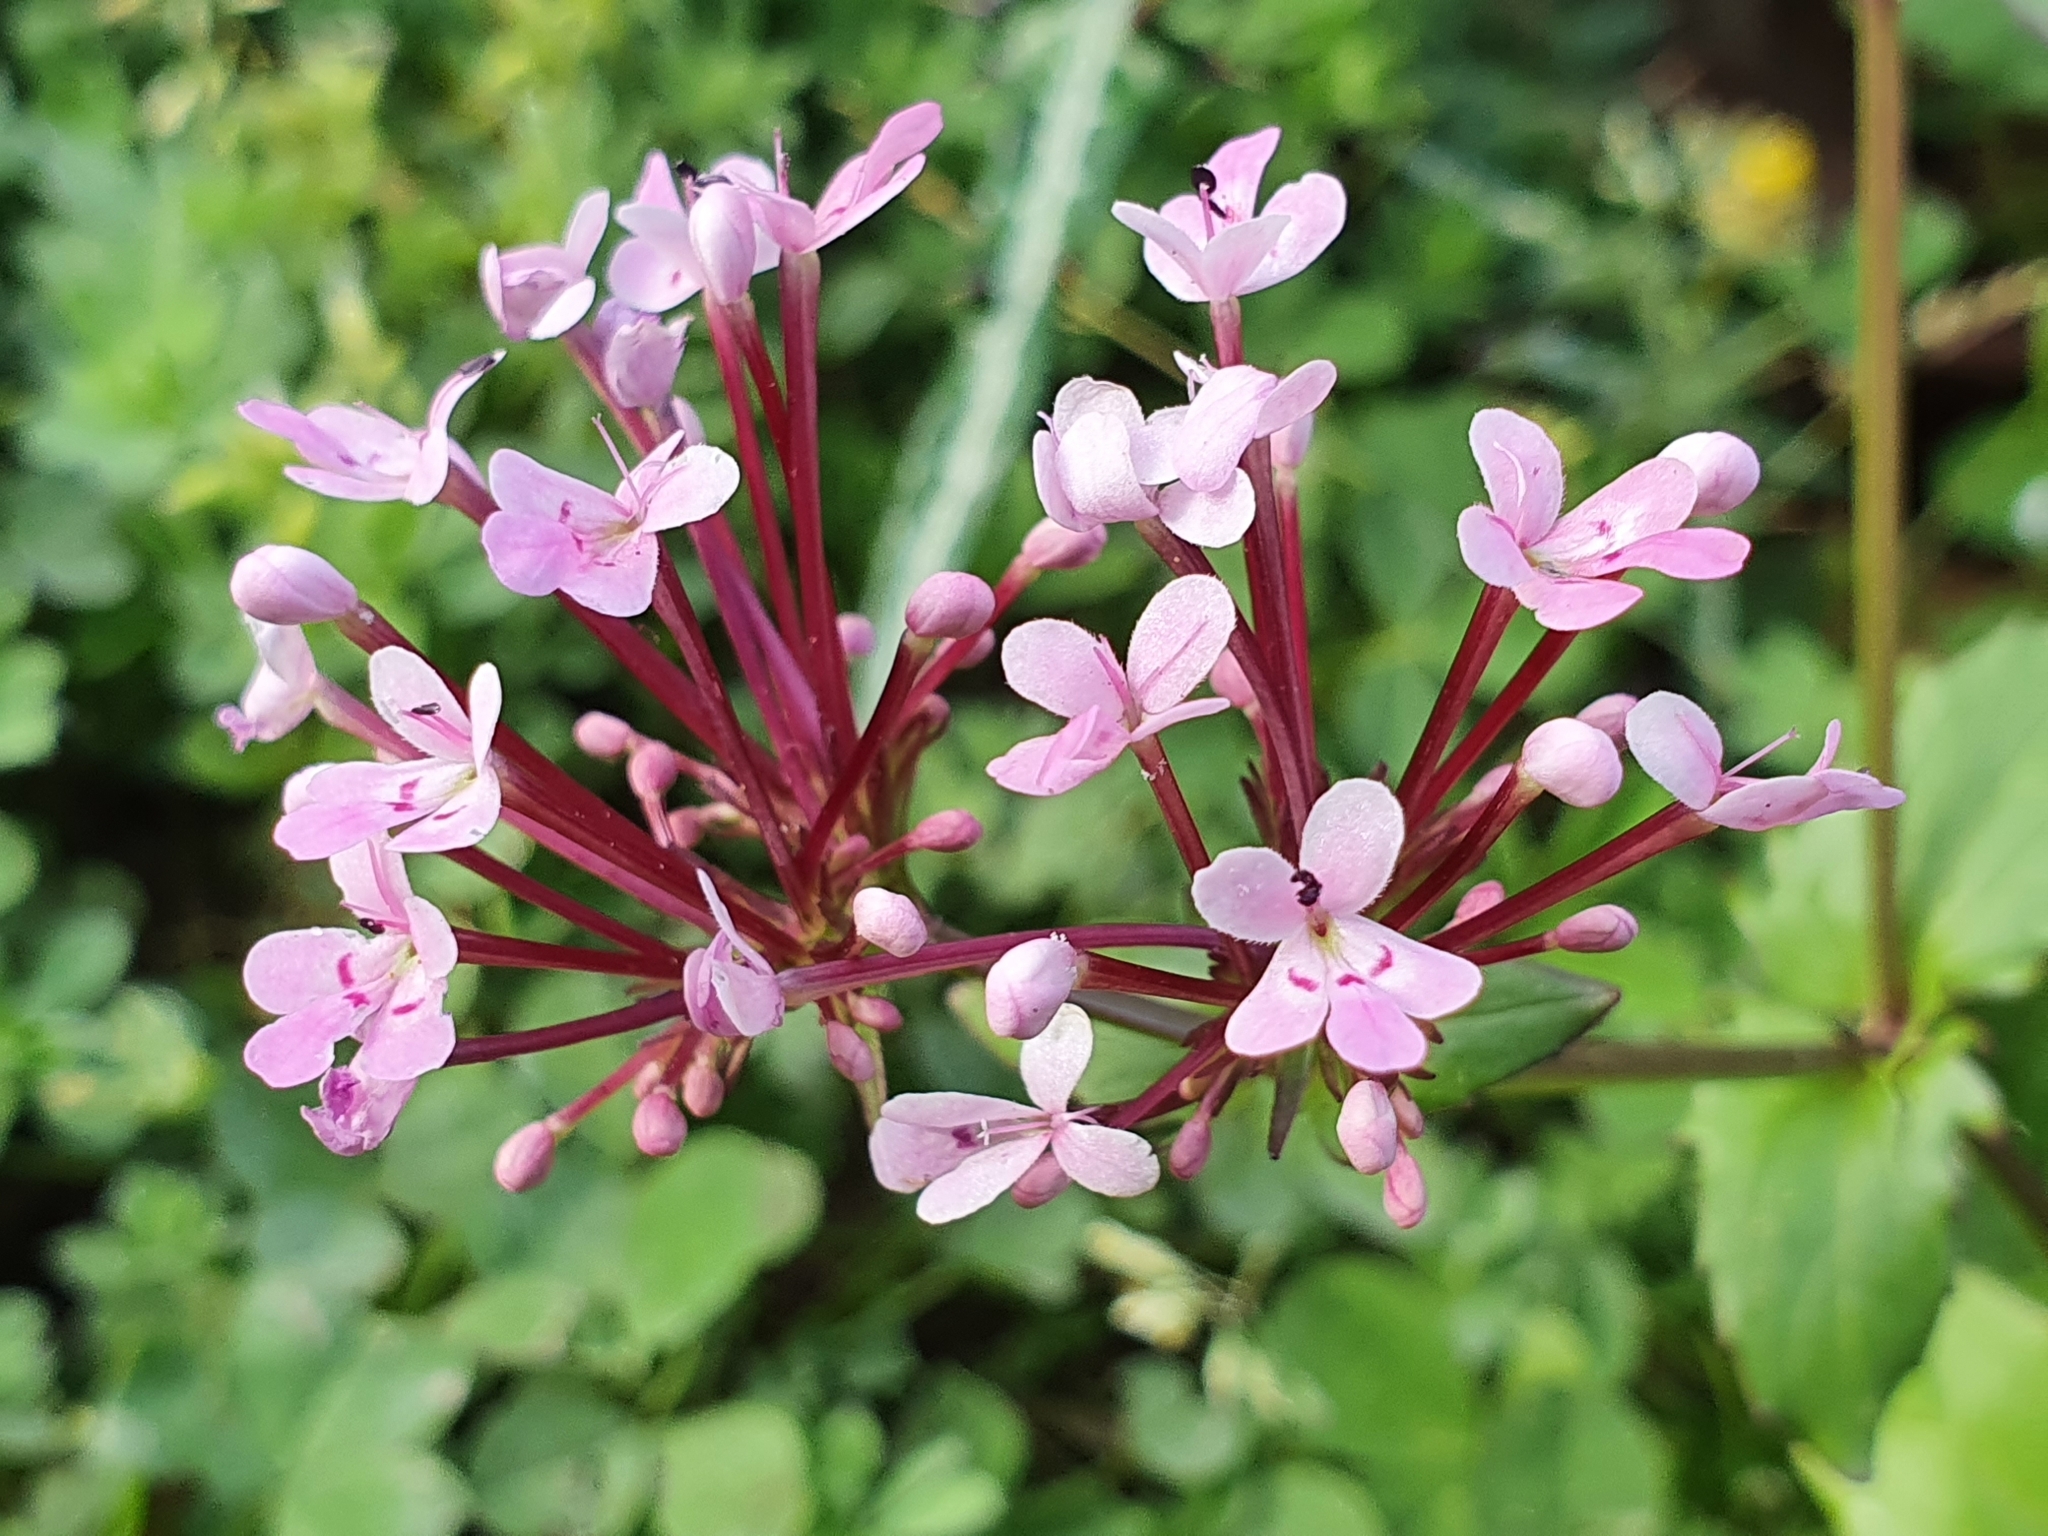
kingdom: Plantae
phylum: Tracheophyta
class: Magnoliopsida
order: Dipsacales
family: Caprifoliaceae
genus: Fedia
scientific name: Fedia graciliflora
